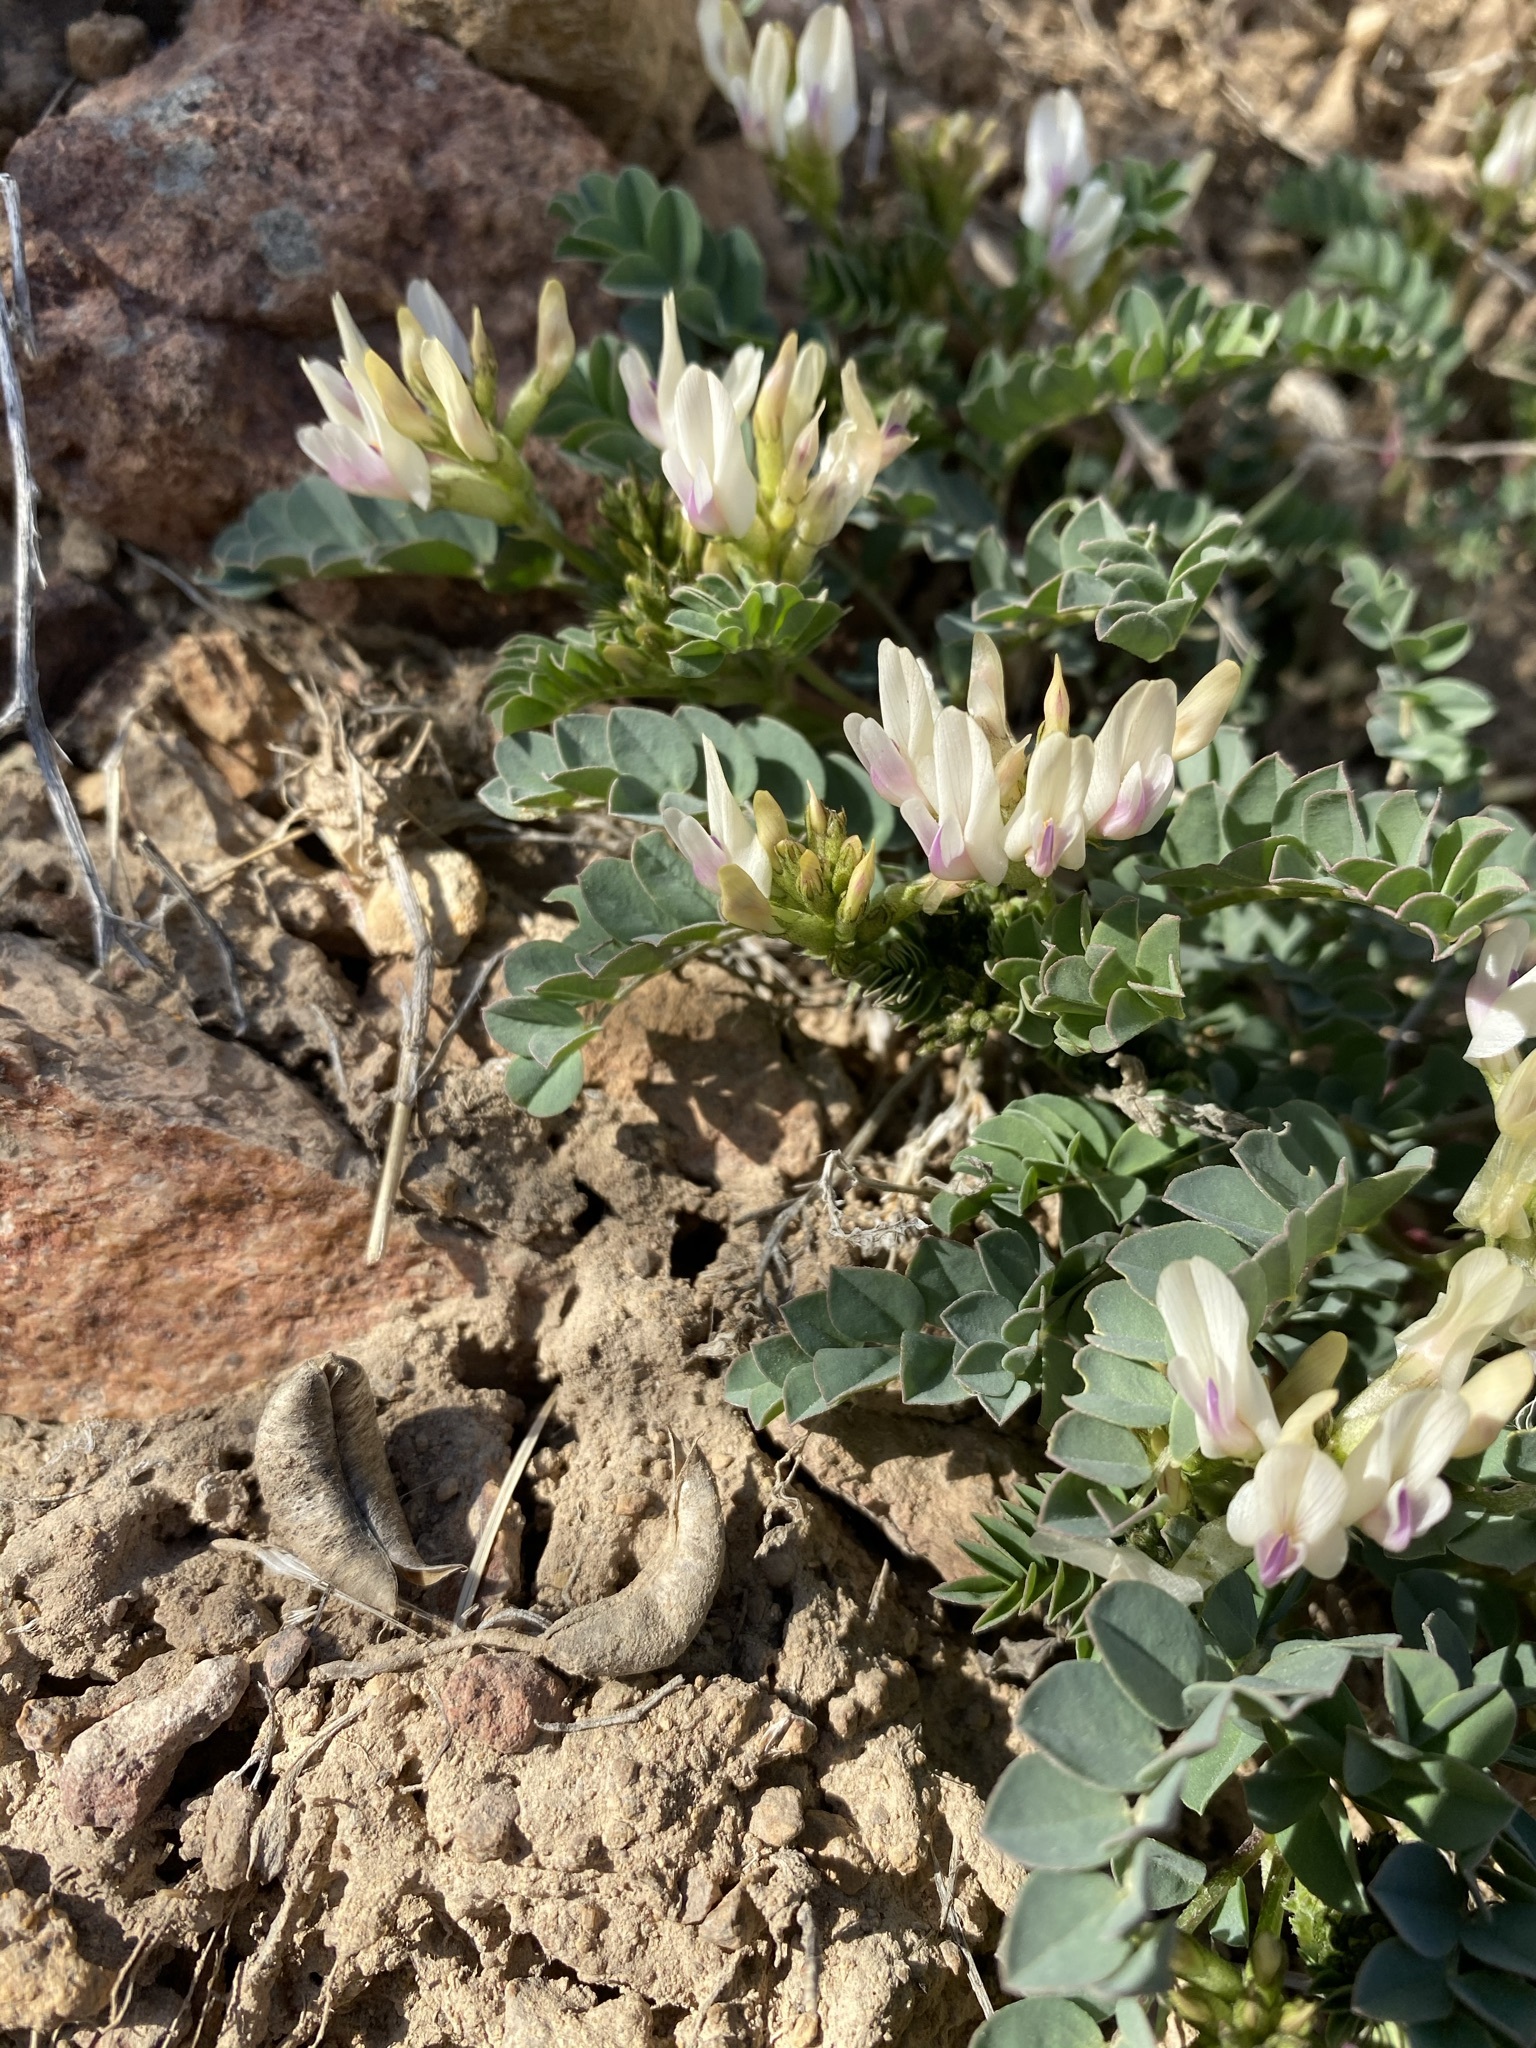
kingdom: Plantae
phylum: Tracheophyta
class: Magnoliopsida
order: Fabales
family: Fabaceae
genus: Astragalus
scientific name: Astragalus lentiginosus
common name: Freckled milkvetch
